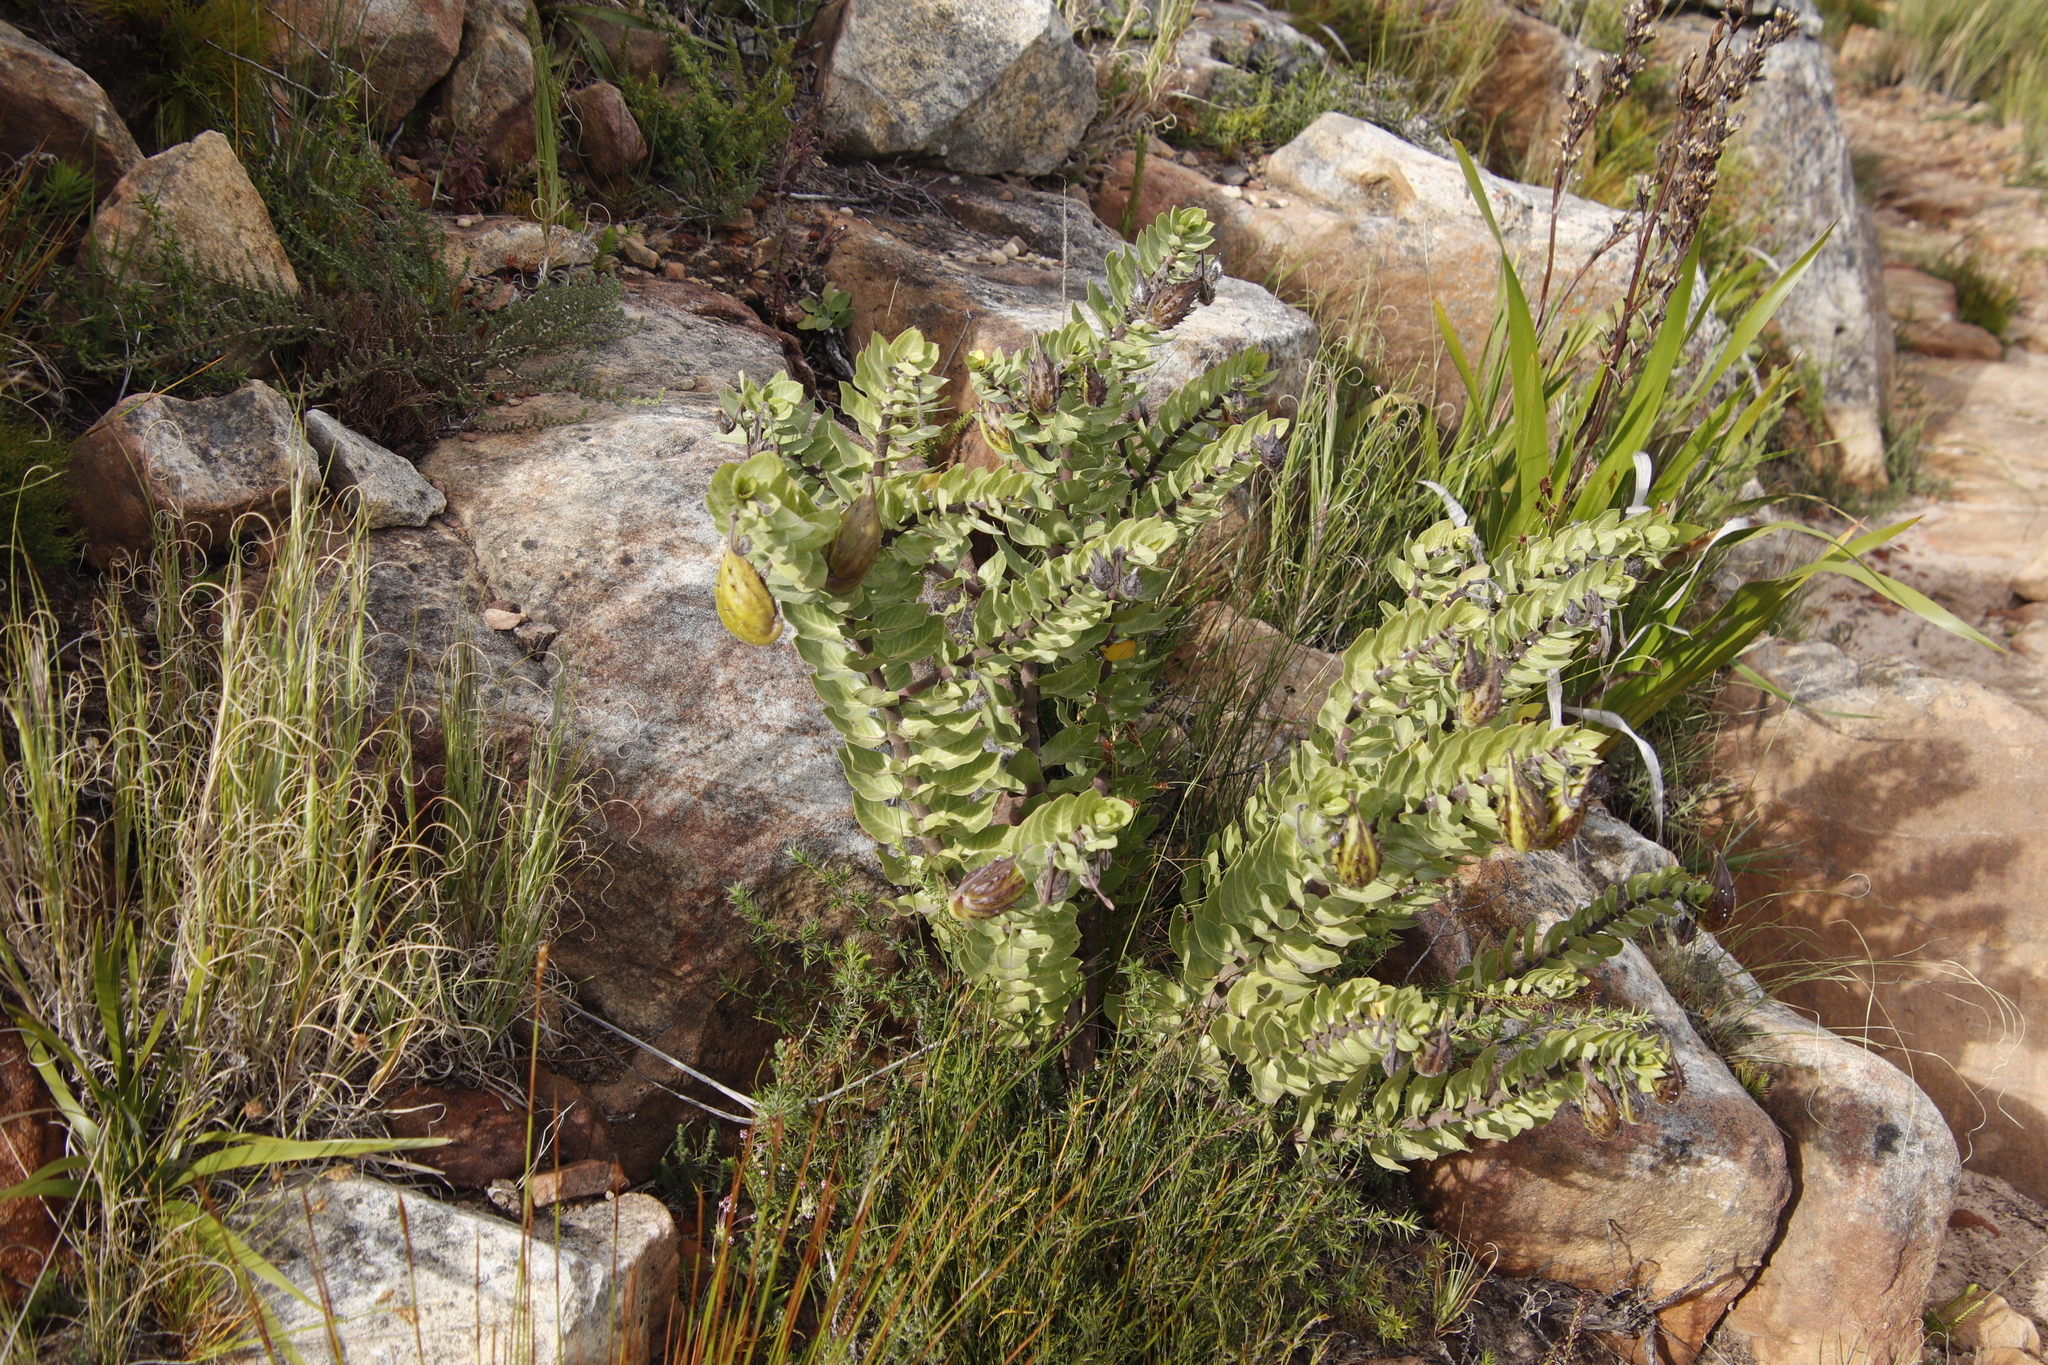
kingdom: Plantae
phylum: Tracheophyta
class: Magnoliopsida
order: Gentianales
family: Apocynaceae
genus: Gomphocarpus
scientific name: Gomphocarpus cancellatus
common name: Wild cotton
